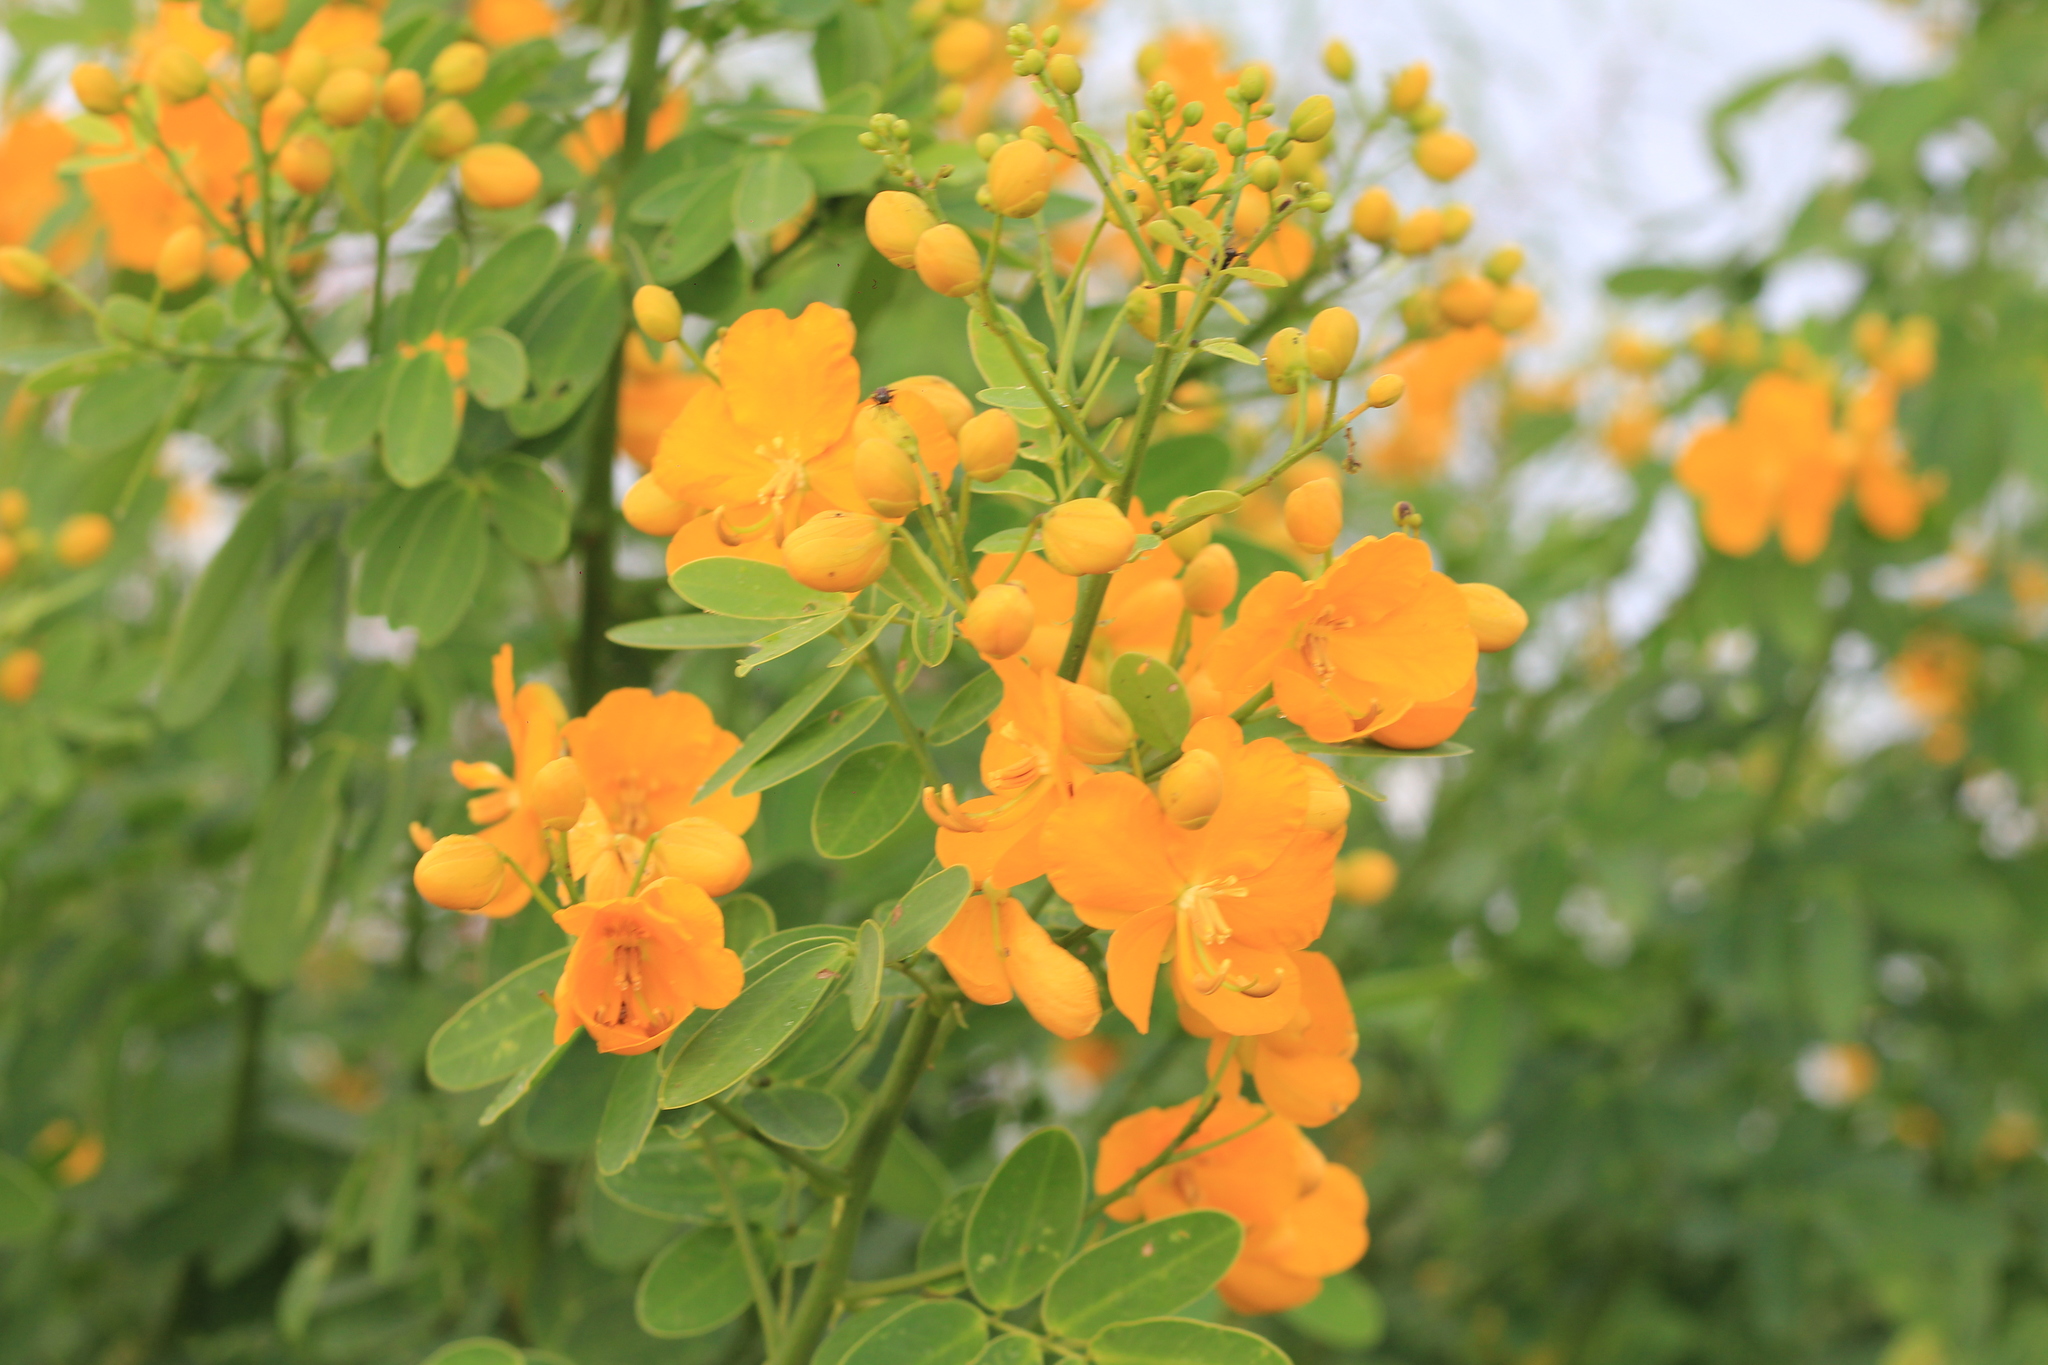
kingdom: Plantae
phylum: Tracheophyta
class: Magnoliopsida
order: Fabales
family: Fabaceae
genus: Senna
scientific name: Senna pendula
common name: Easter cassia
